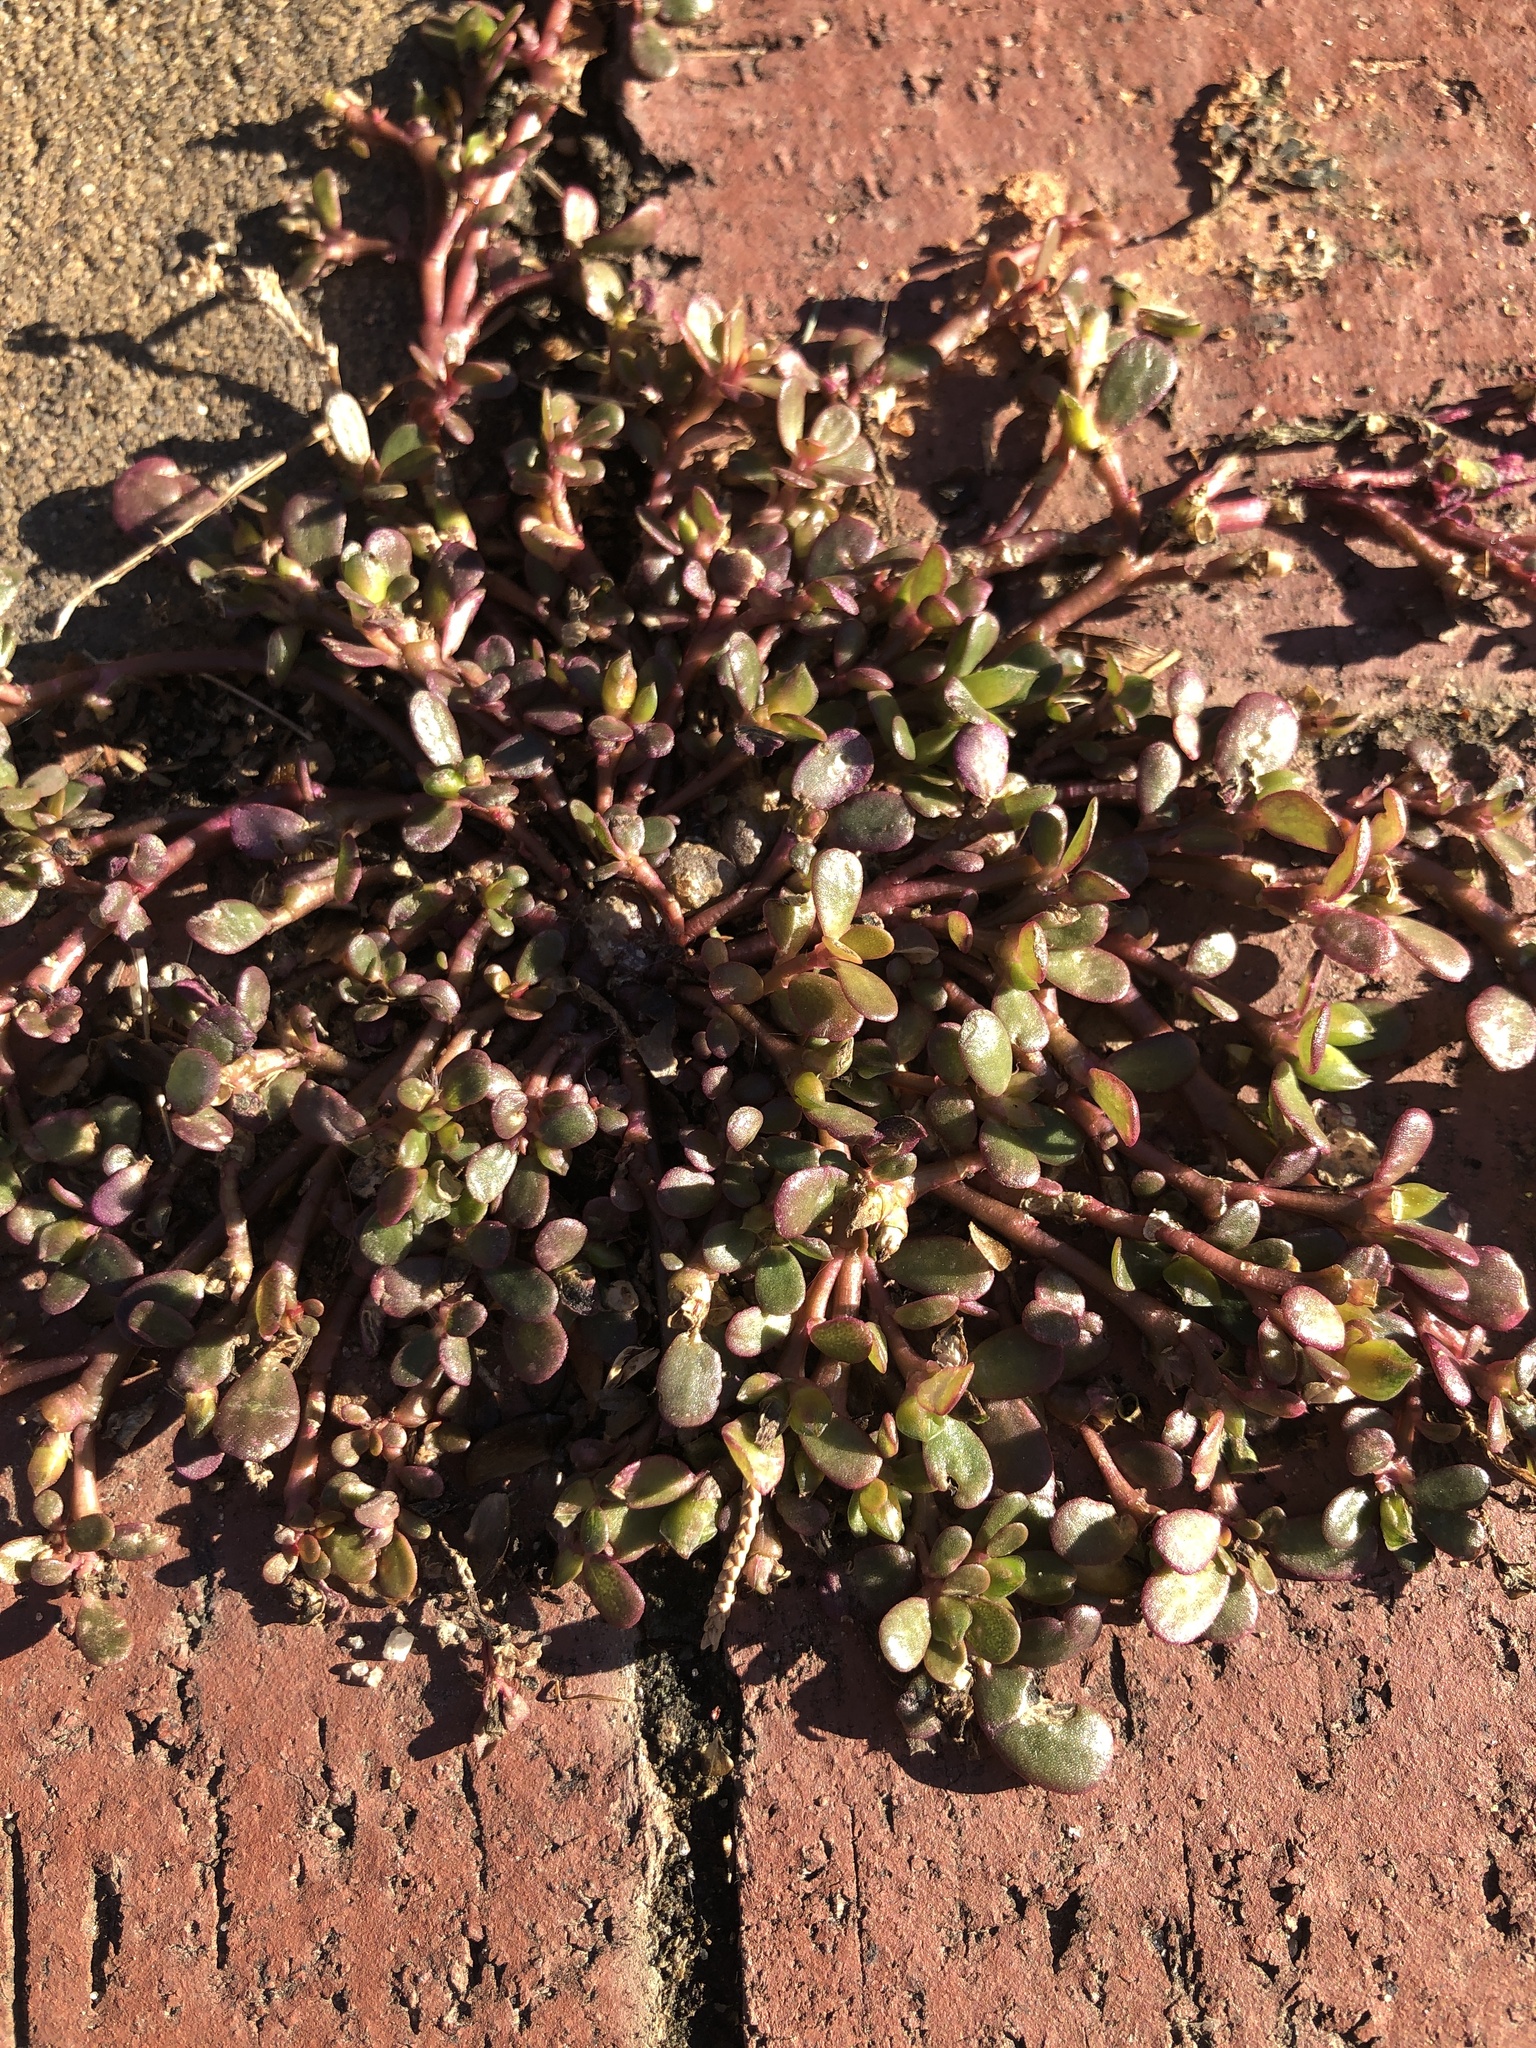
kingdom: Plantae
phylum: Tracheophyta
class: Magnoliopsida
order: Caryophyllales
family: Portulacaceae
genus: Portulaca
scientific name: Portulaca oleracea
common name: Common purslane
